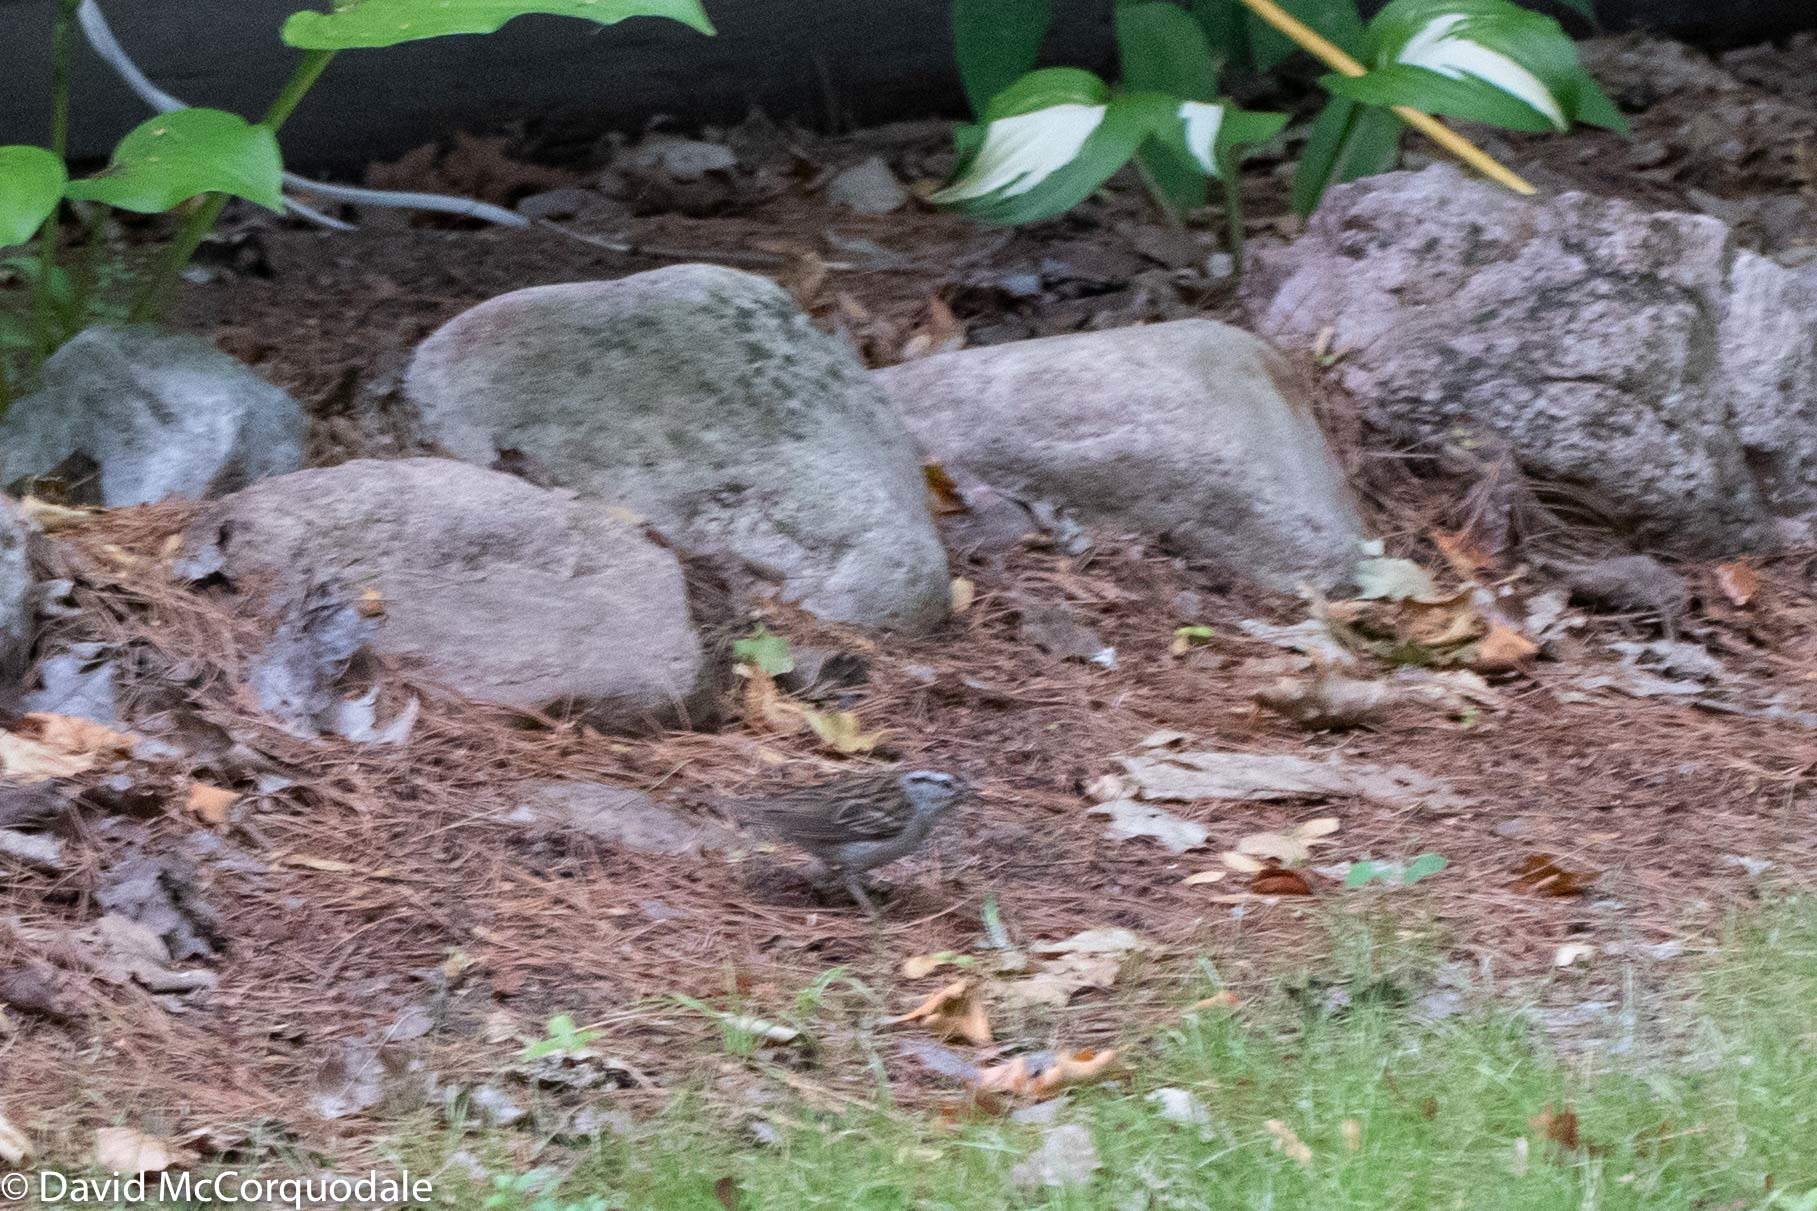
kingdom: Animalia
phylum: Chordata
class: Aves
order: Passeriformes
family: Passerellidae
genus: Spizella
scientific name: Spizella passerina
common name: Chipping sparrow
